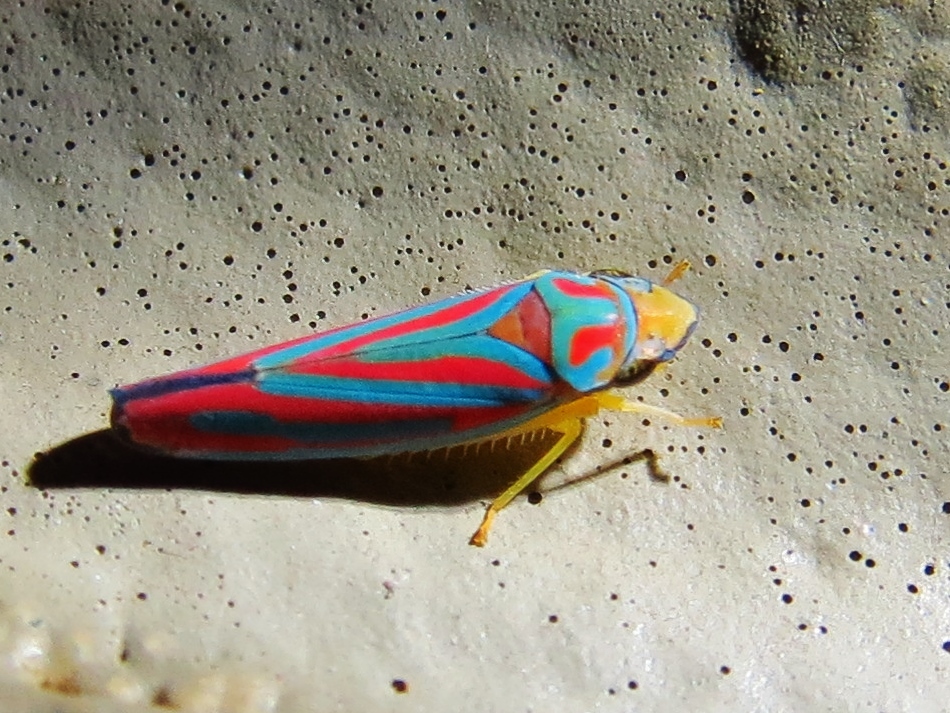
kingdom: Animalia
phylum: Arthropoda
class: Insecta
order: Hemiptera
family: Cicadellidae
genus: Graphocephala
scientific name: Graphocephala coccinea
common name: Candy-striped leafhopper
